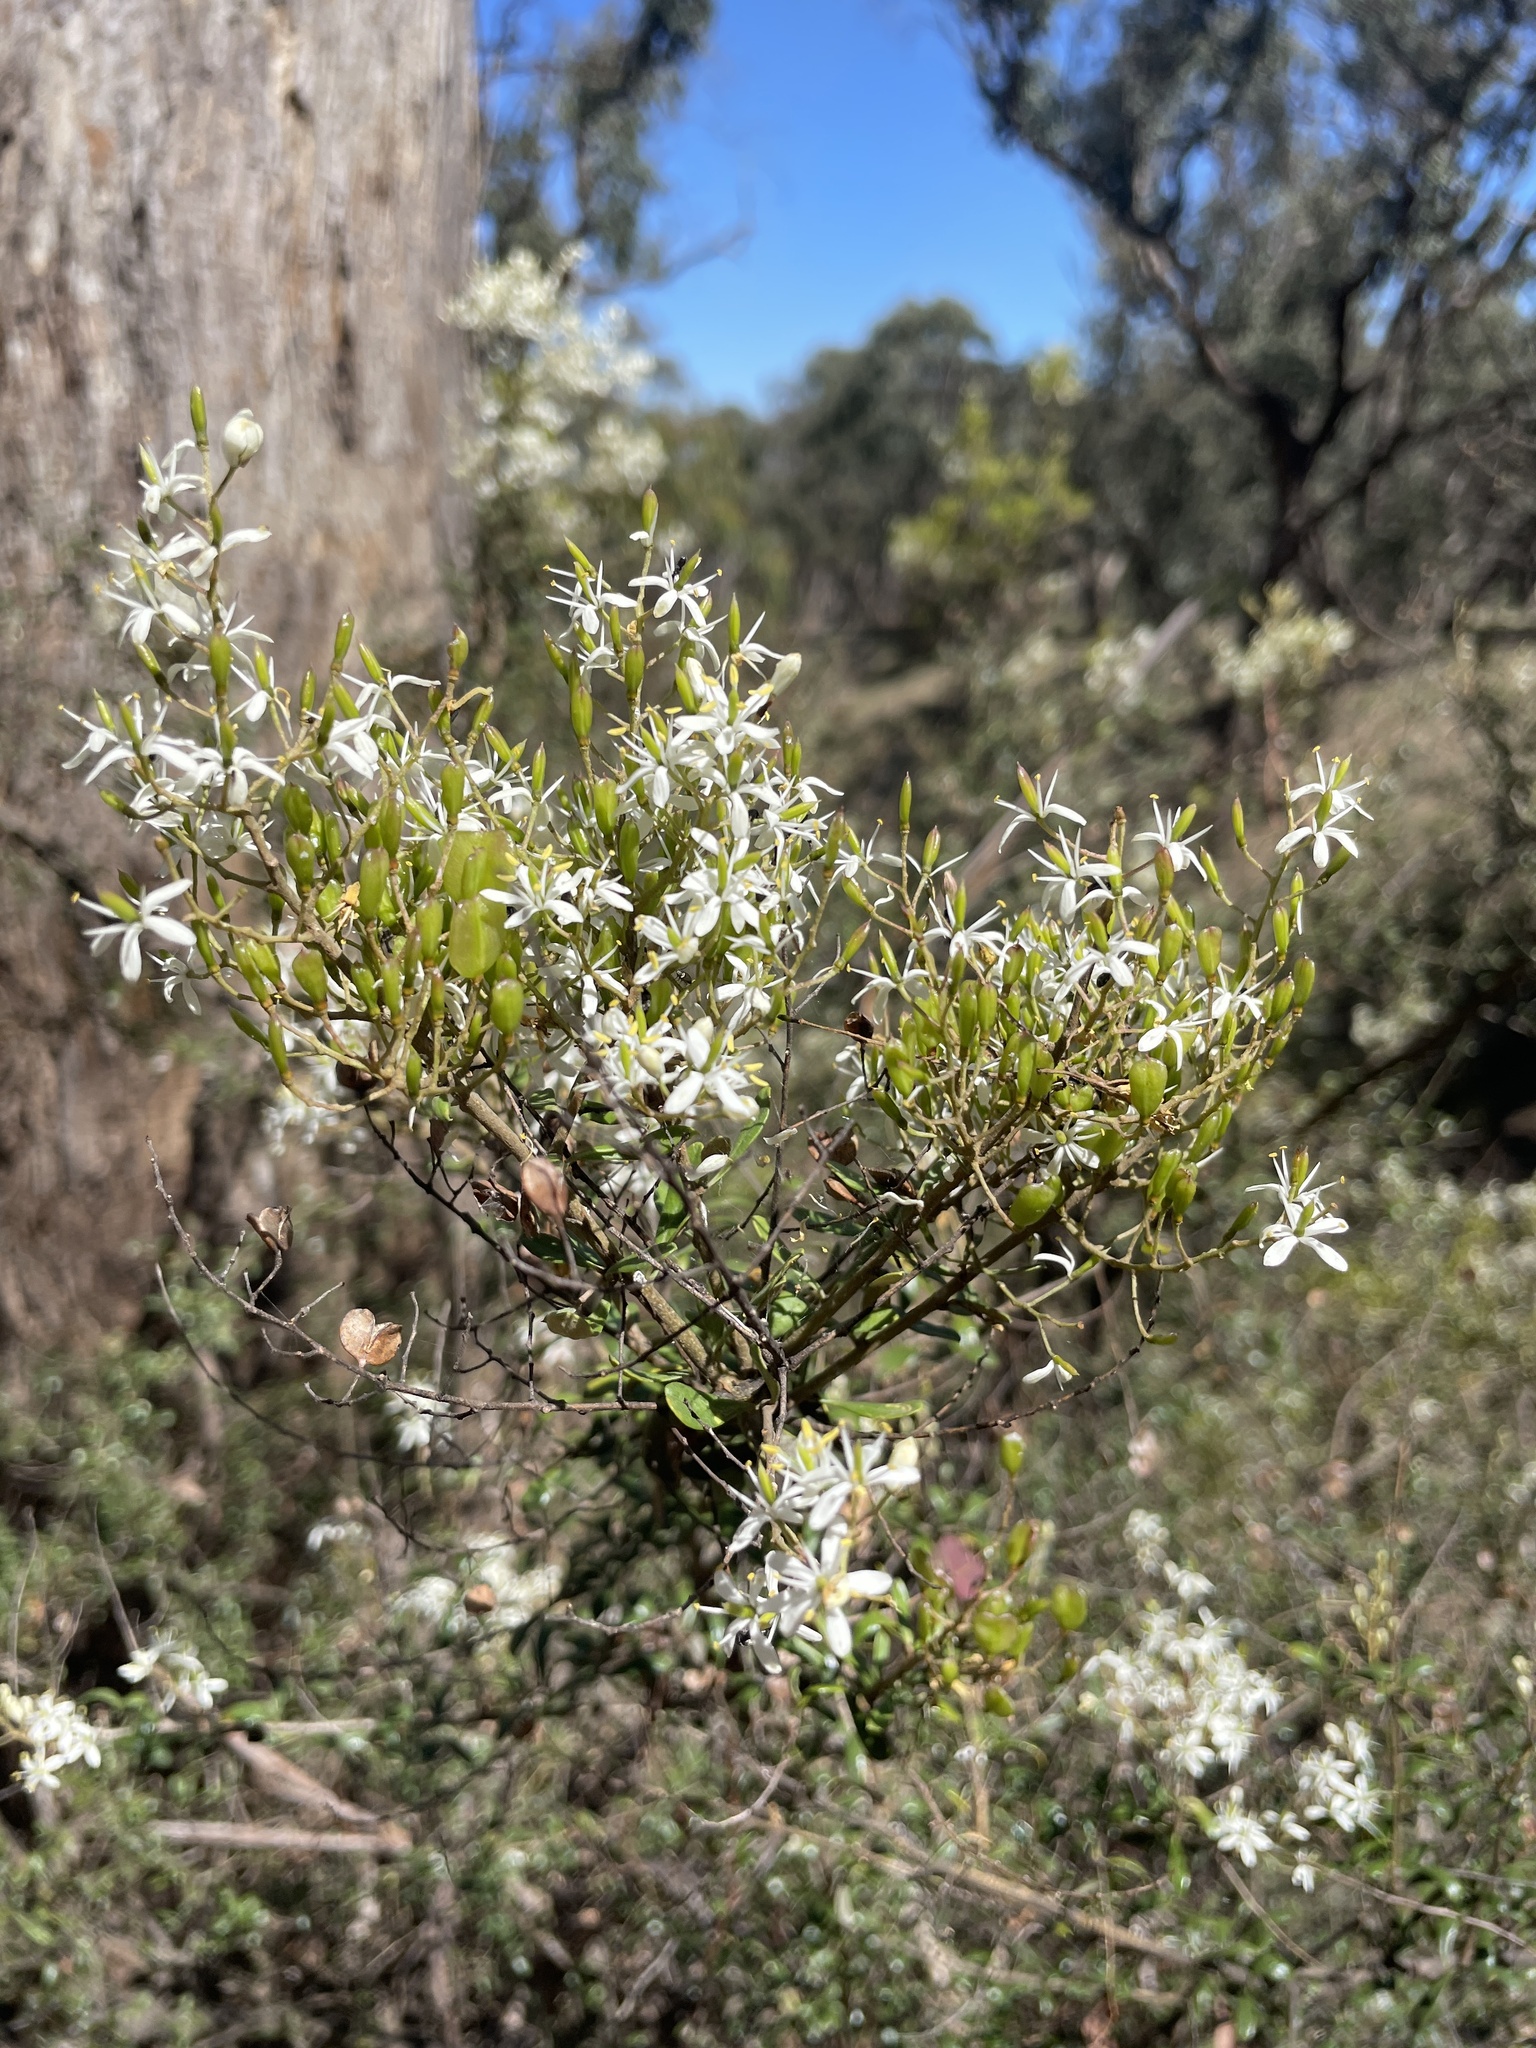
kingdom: Plantae
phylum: Tracheophyta
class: Magnoliopsida
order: Apiales
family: Pittosporaceae
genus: Bursaria
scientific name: Bursaria spinosa
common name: Australian blackthorn
